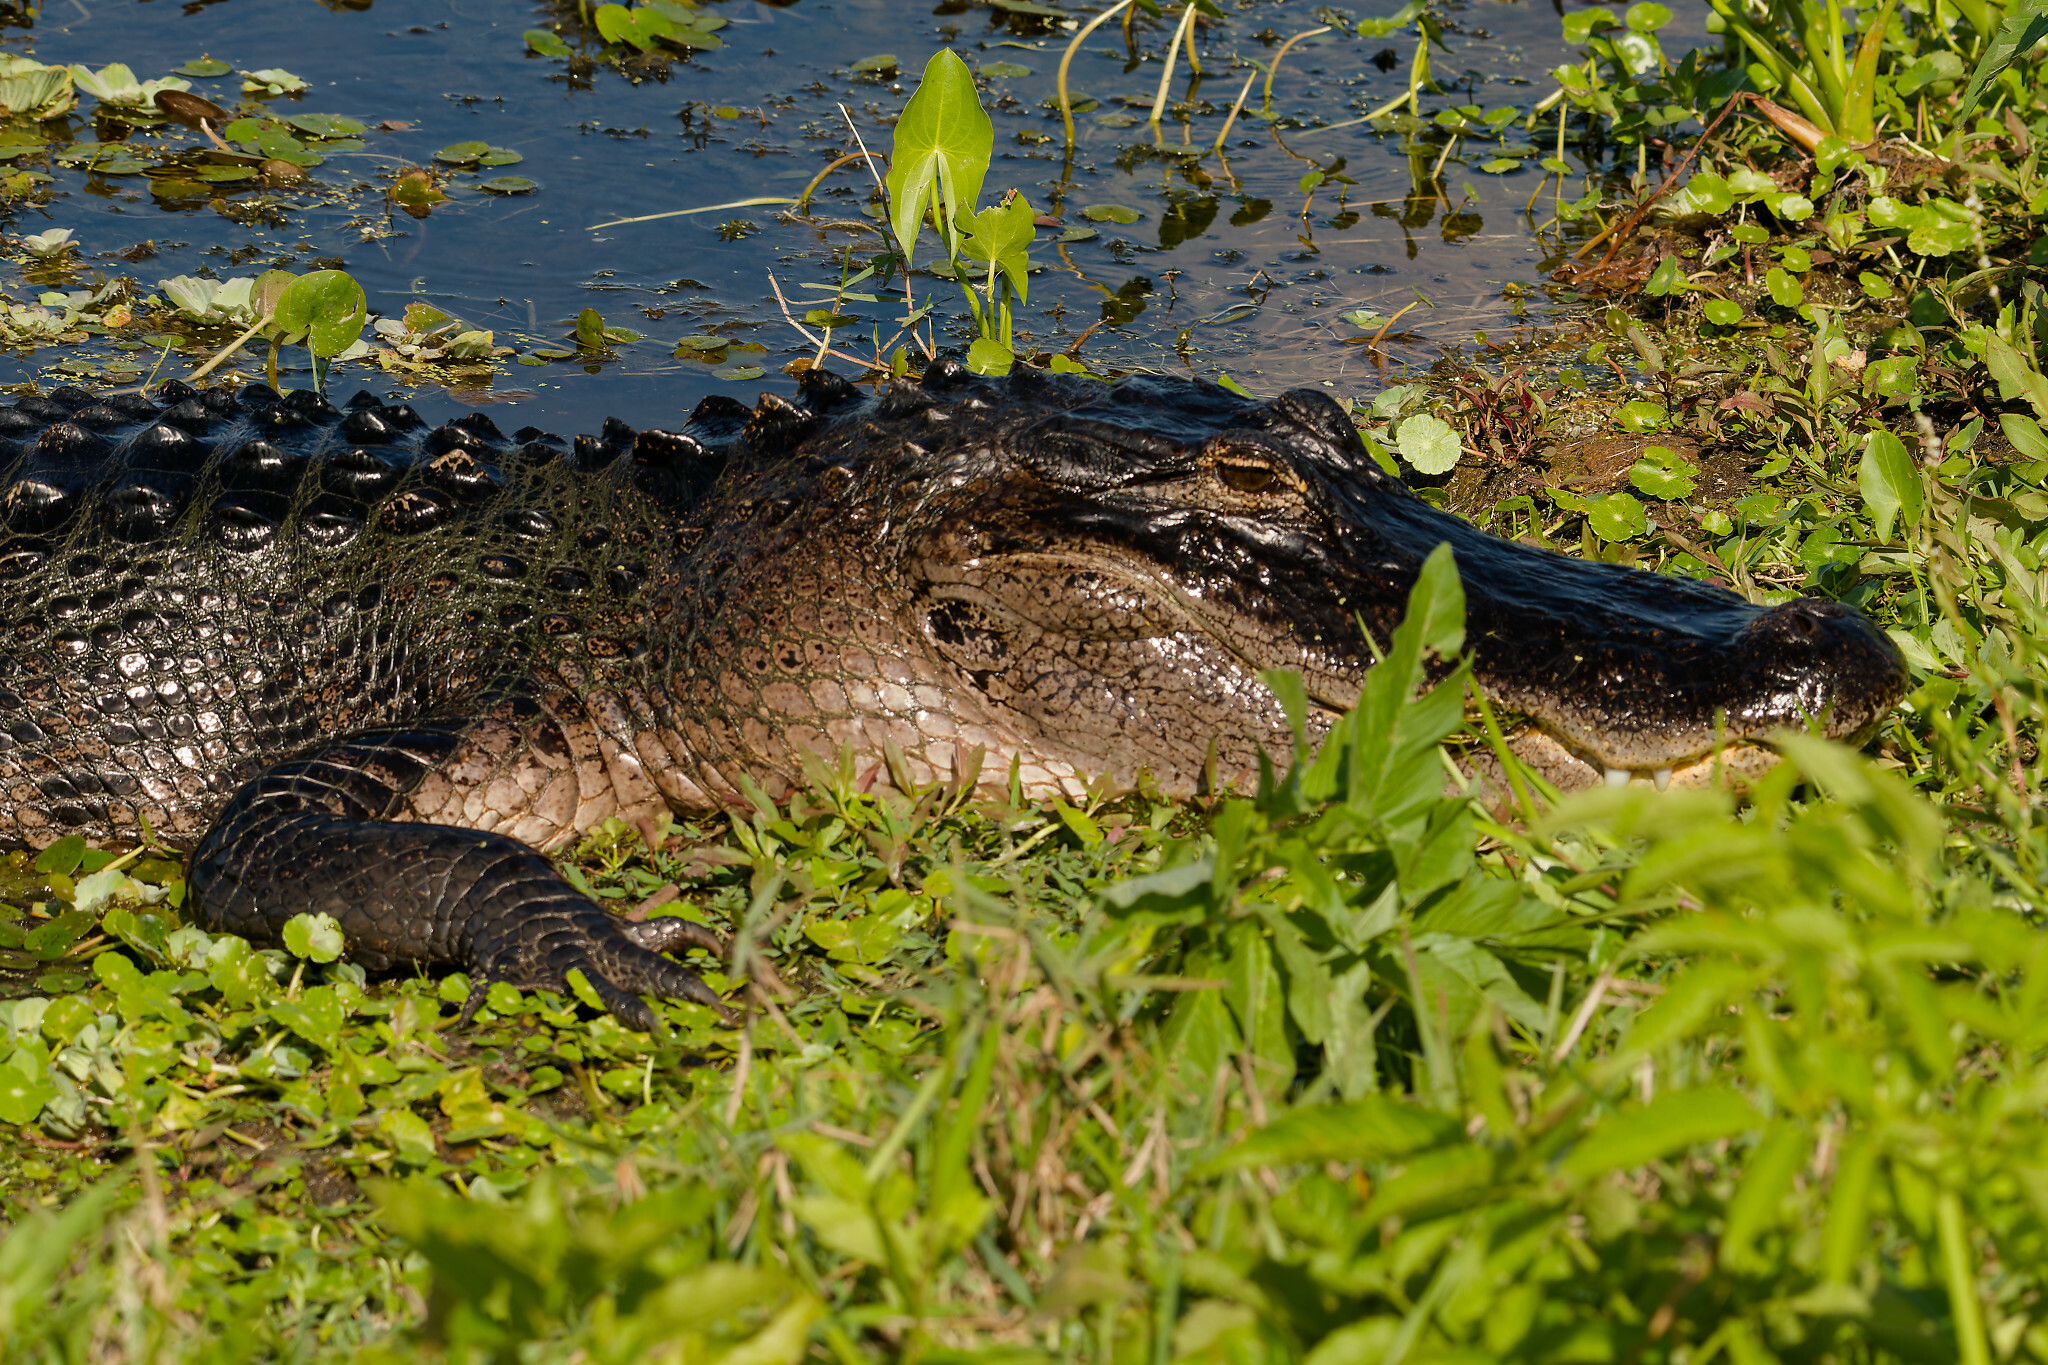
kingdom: Animalia
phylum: Chordata
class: Crocodylia
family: Alligatoridae
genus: Alligator
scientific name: Alligator mississippiensis
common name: American alligator
